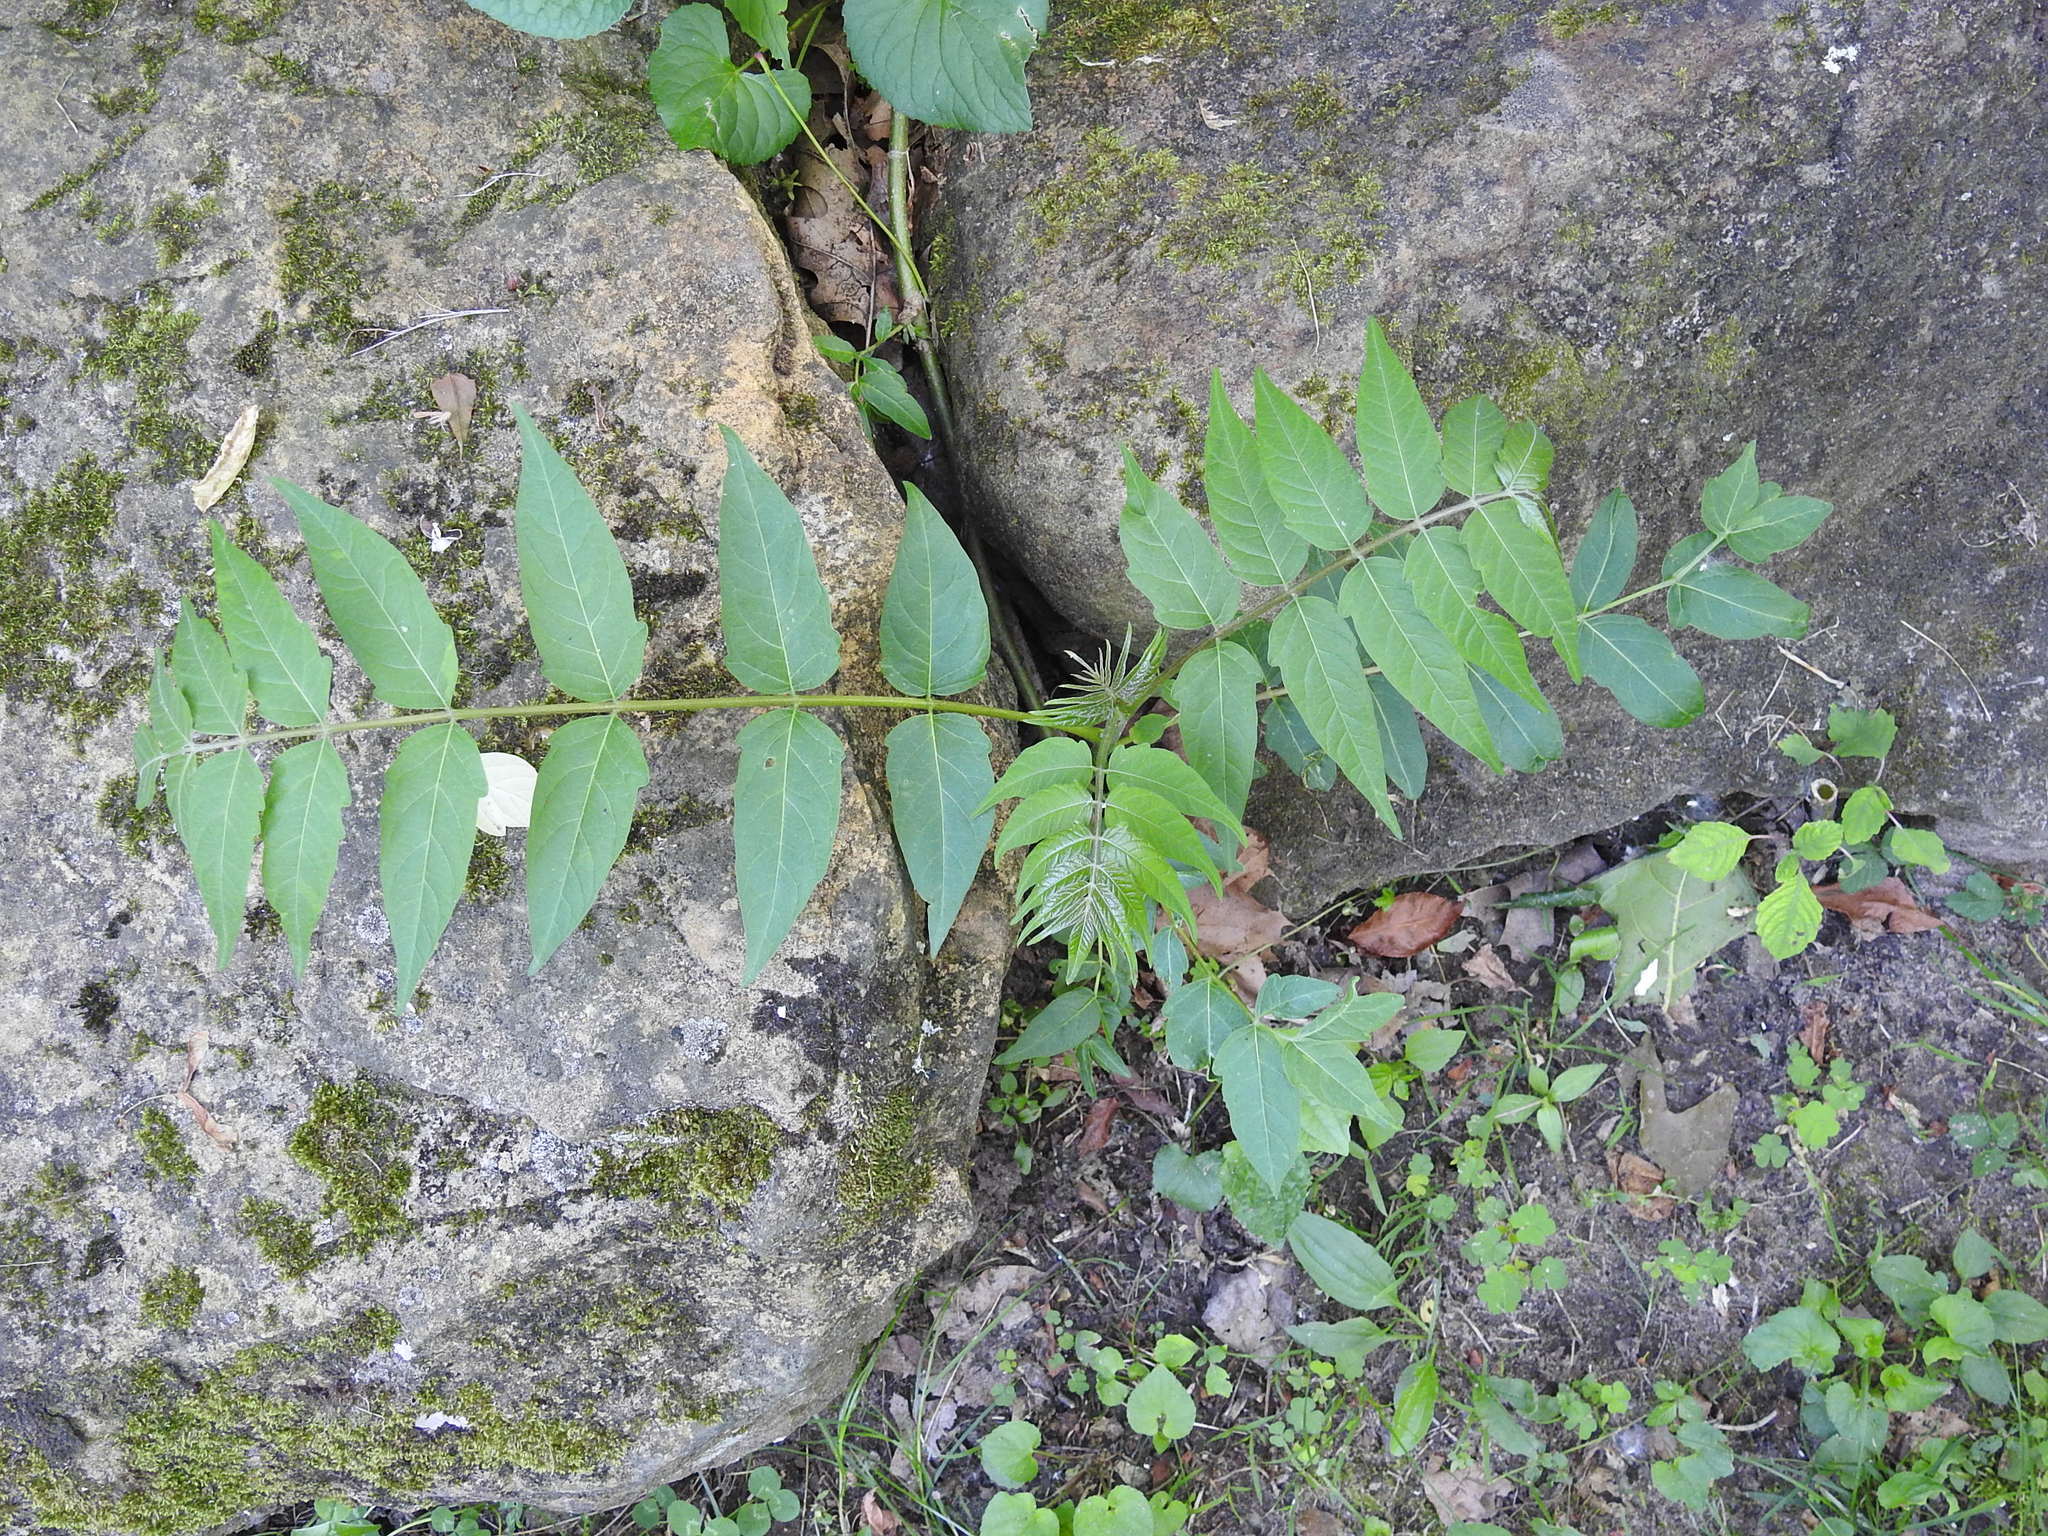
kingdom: Plantae
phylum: Tracheophyta
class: Magnoliopsida
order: Sapindales
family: Simaroubaceae
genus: Ailanthus
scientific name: Ailanthus altissima
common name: Tree-of-heaven
